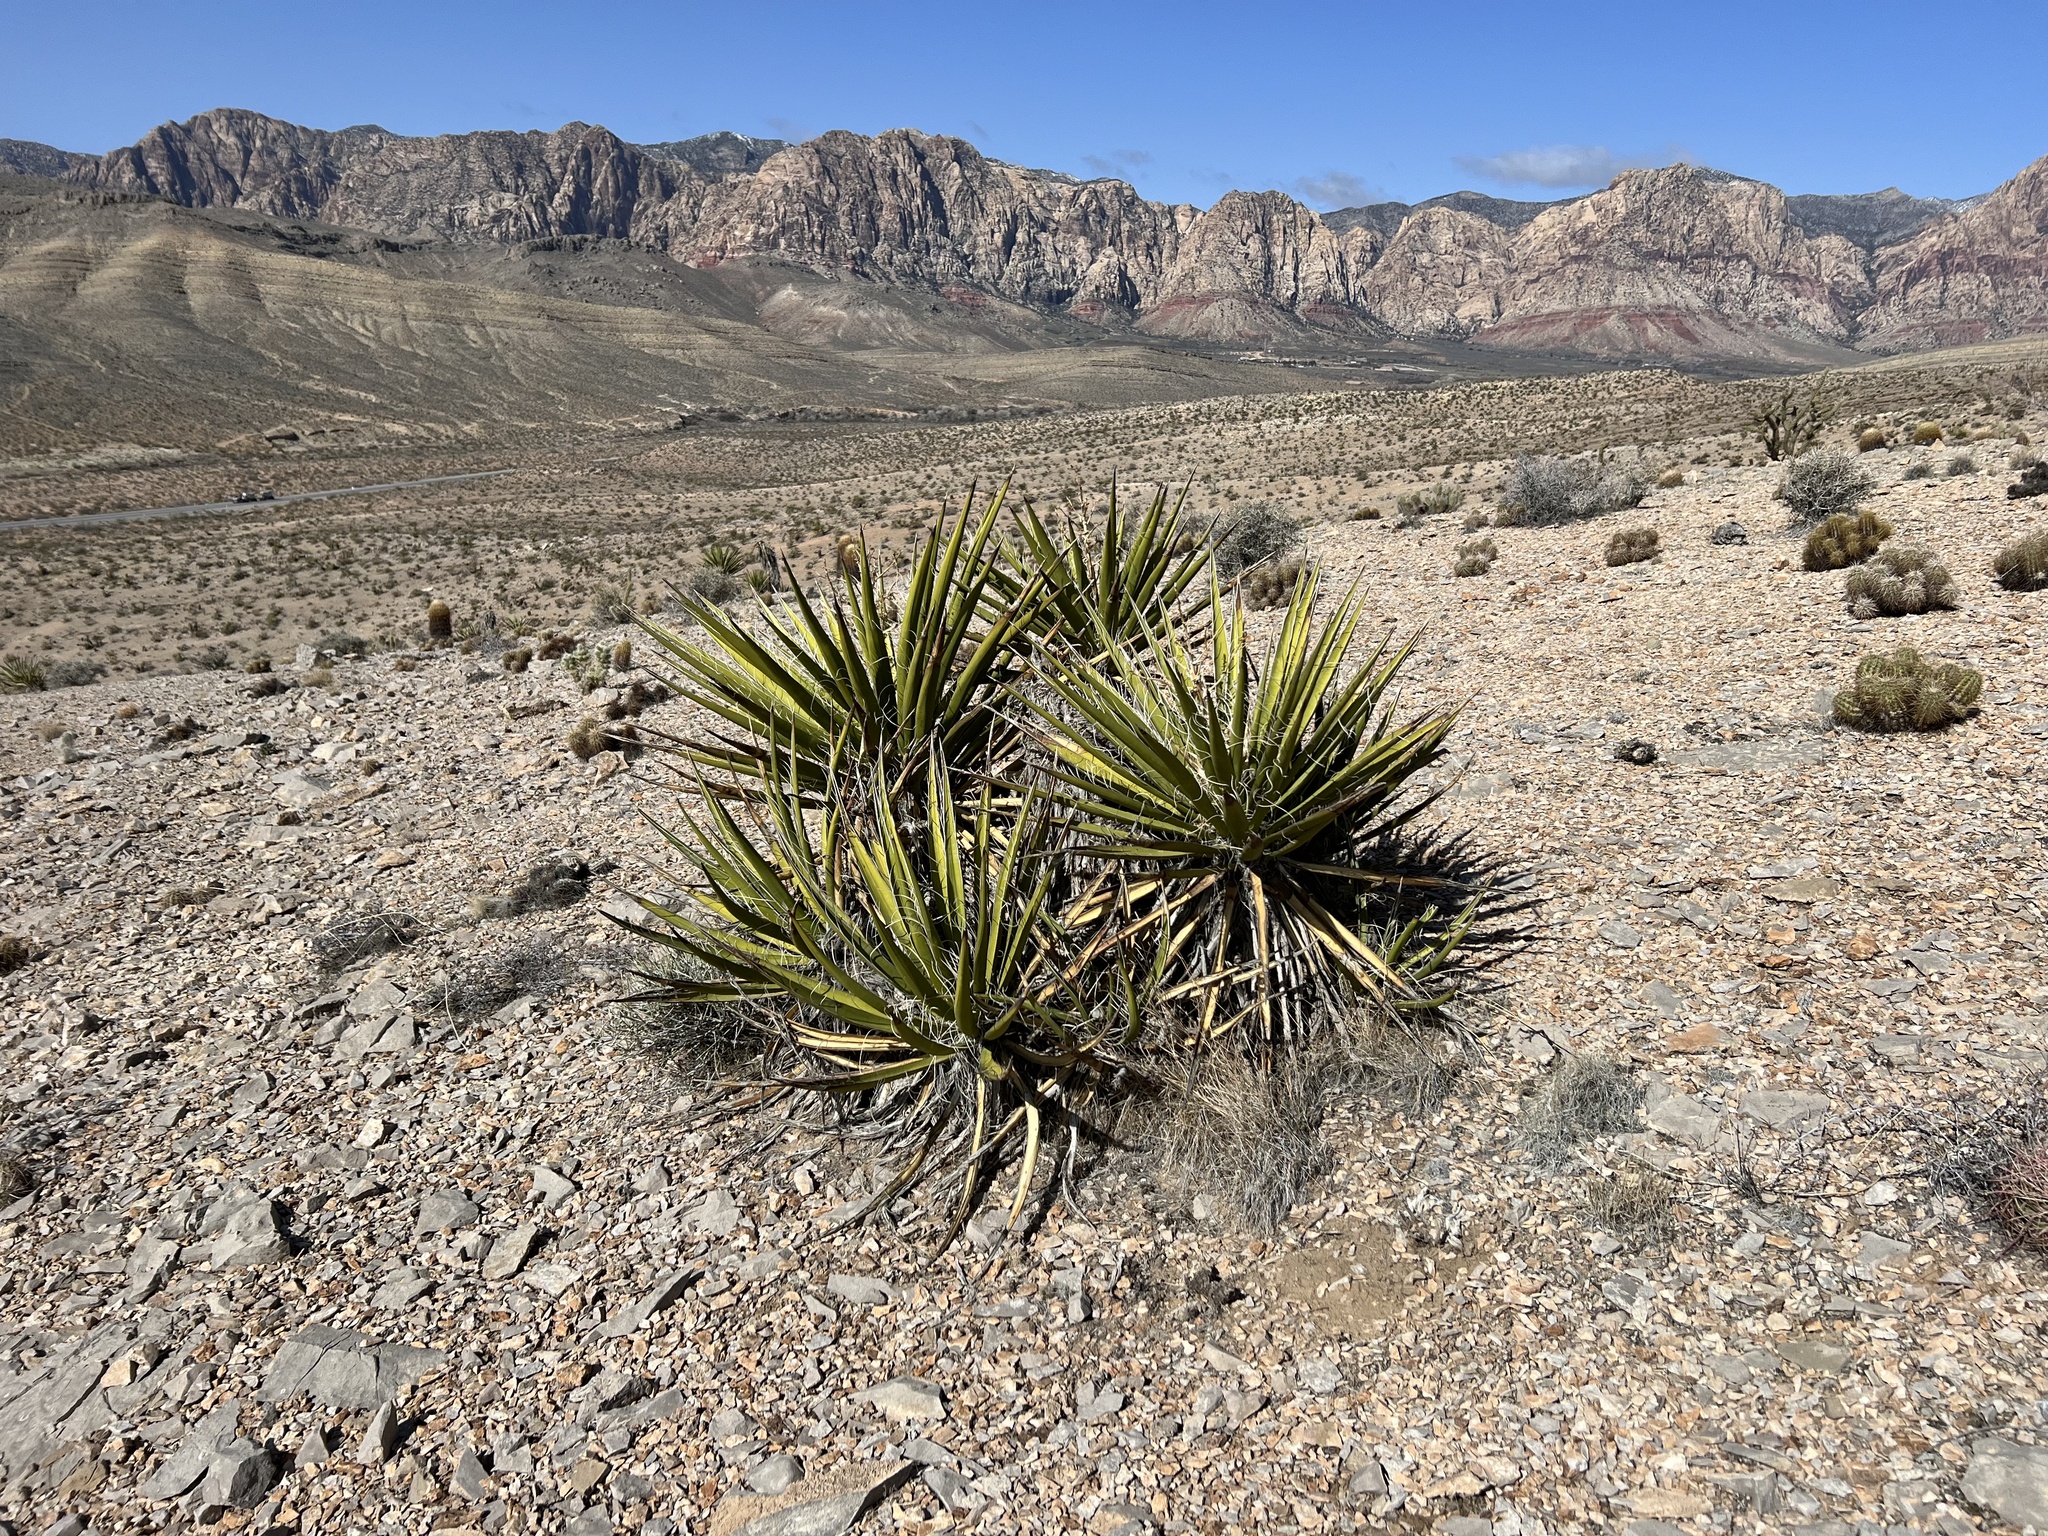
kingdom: Plantae
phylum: Tracheophyta
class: Liliopsida
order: Asparagales
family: Asparagaceae
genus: Yucca
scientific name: Yucca schidigera
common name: Mojave yucca
